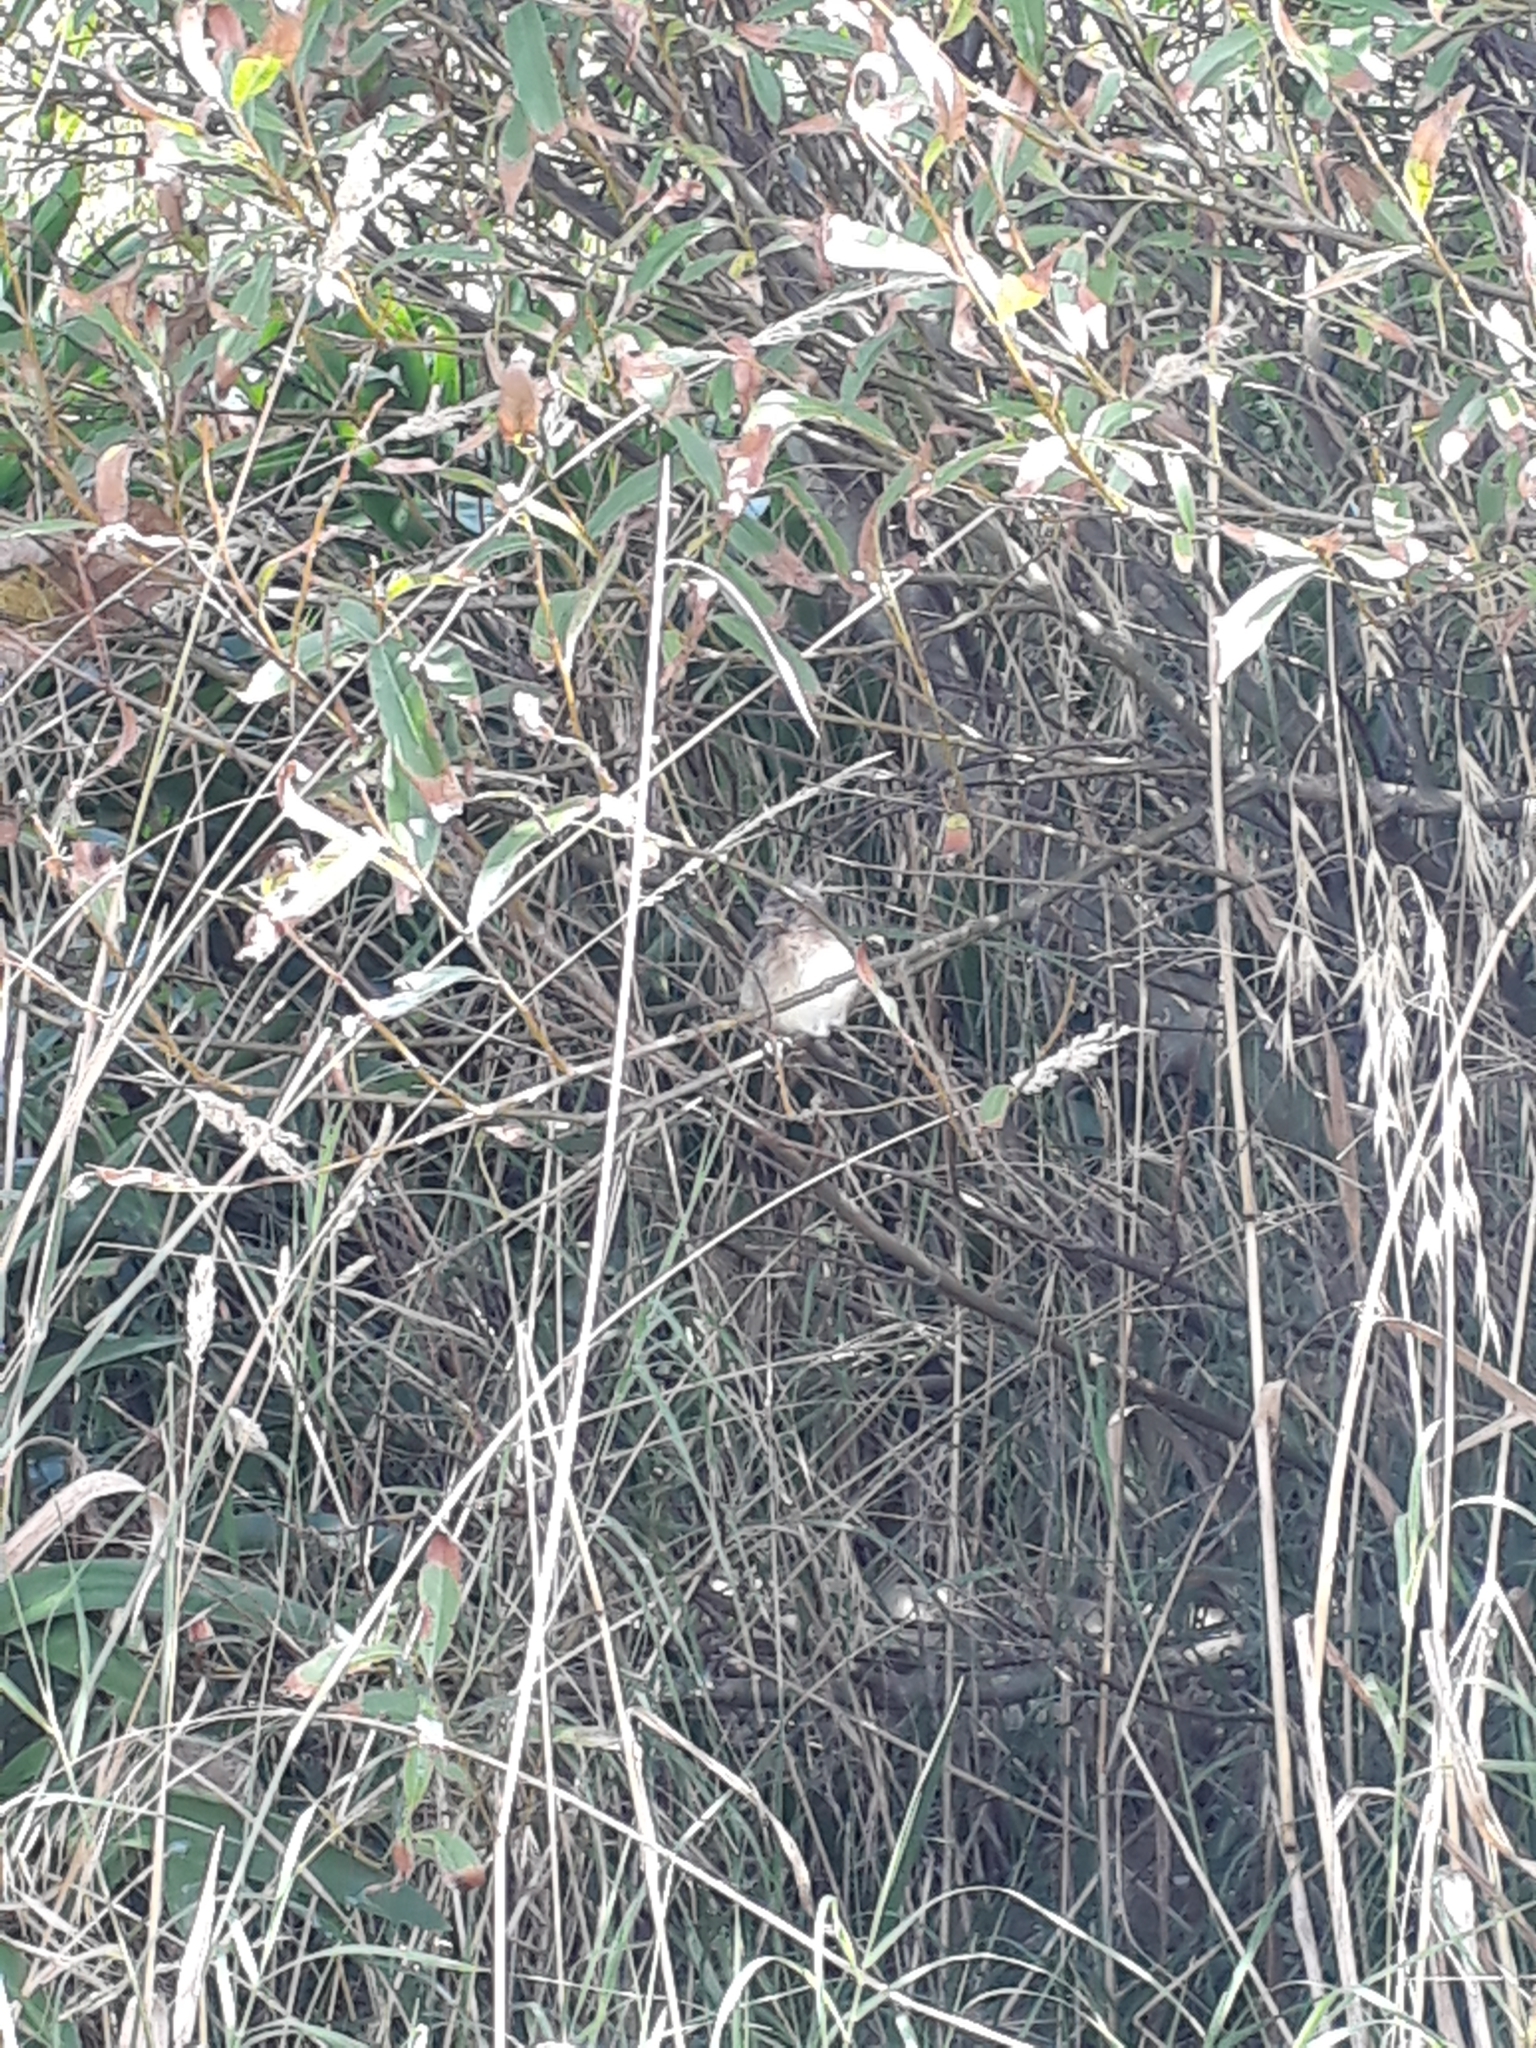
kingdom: Animalia
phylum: Chordata
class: Aves
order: Passeriformes
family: Fringillidae
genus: Carduelis
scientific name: Carduelis carduelis
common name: European goldfinch
